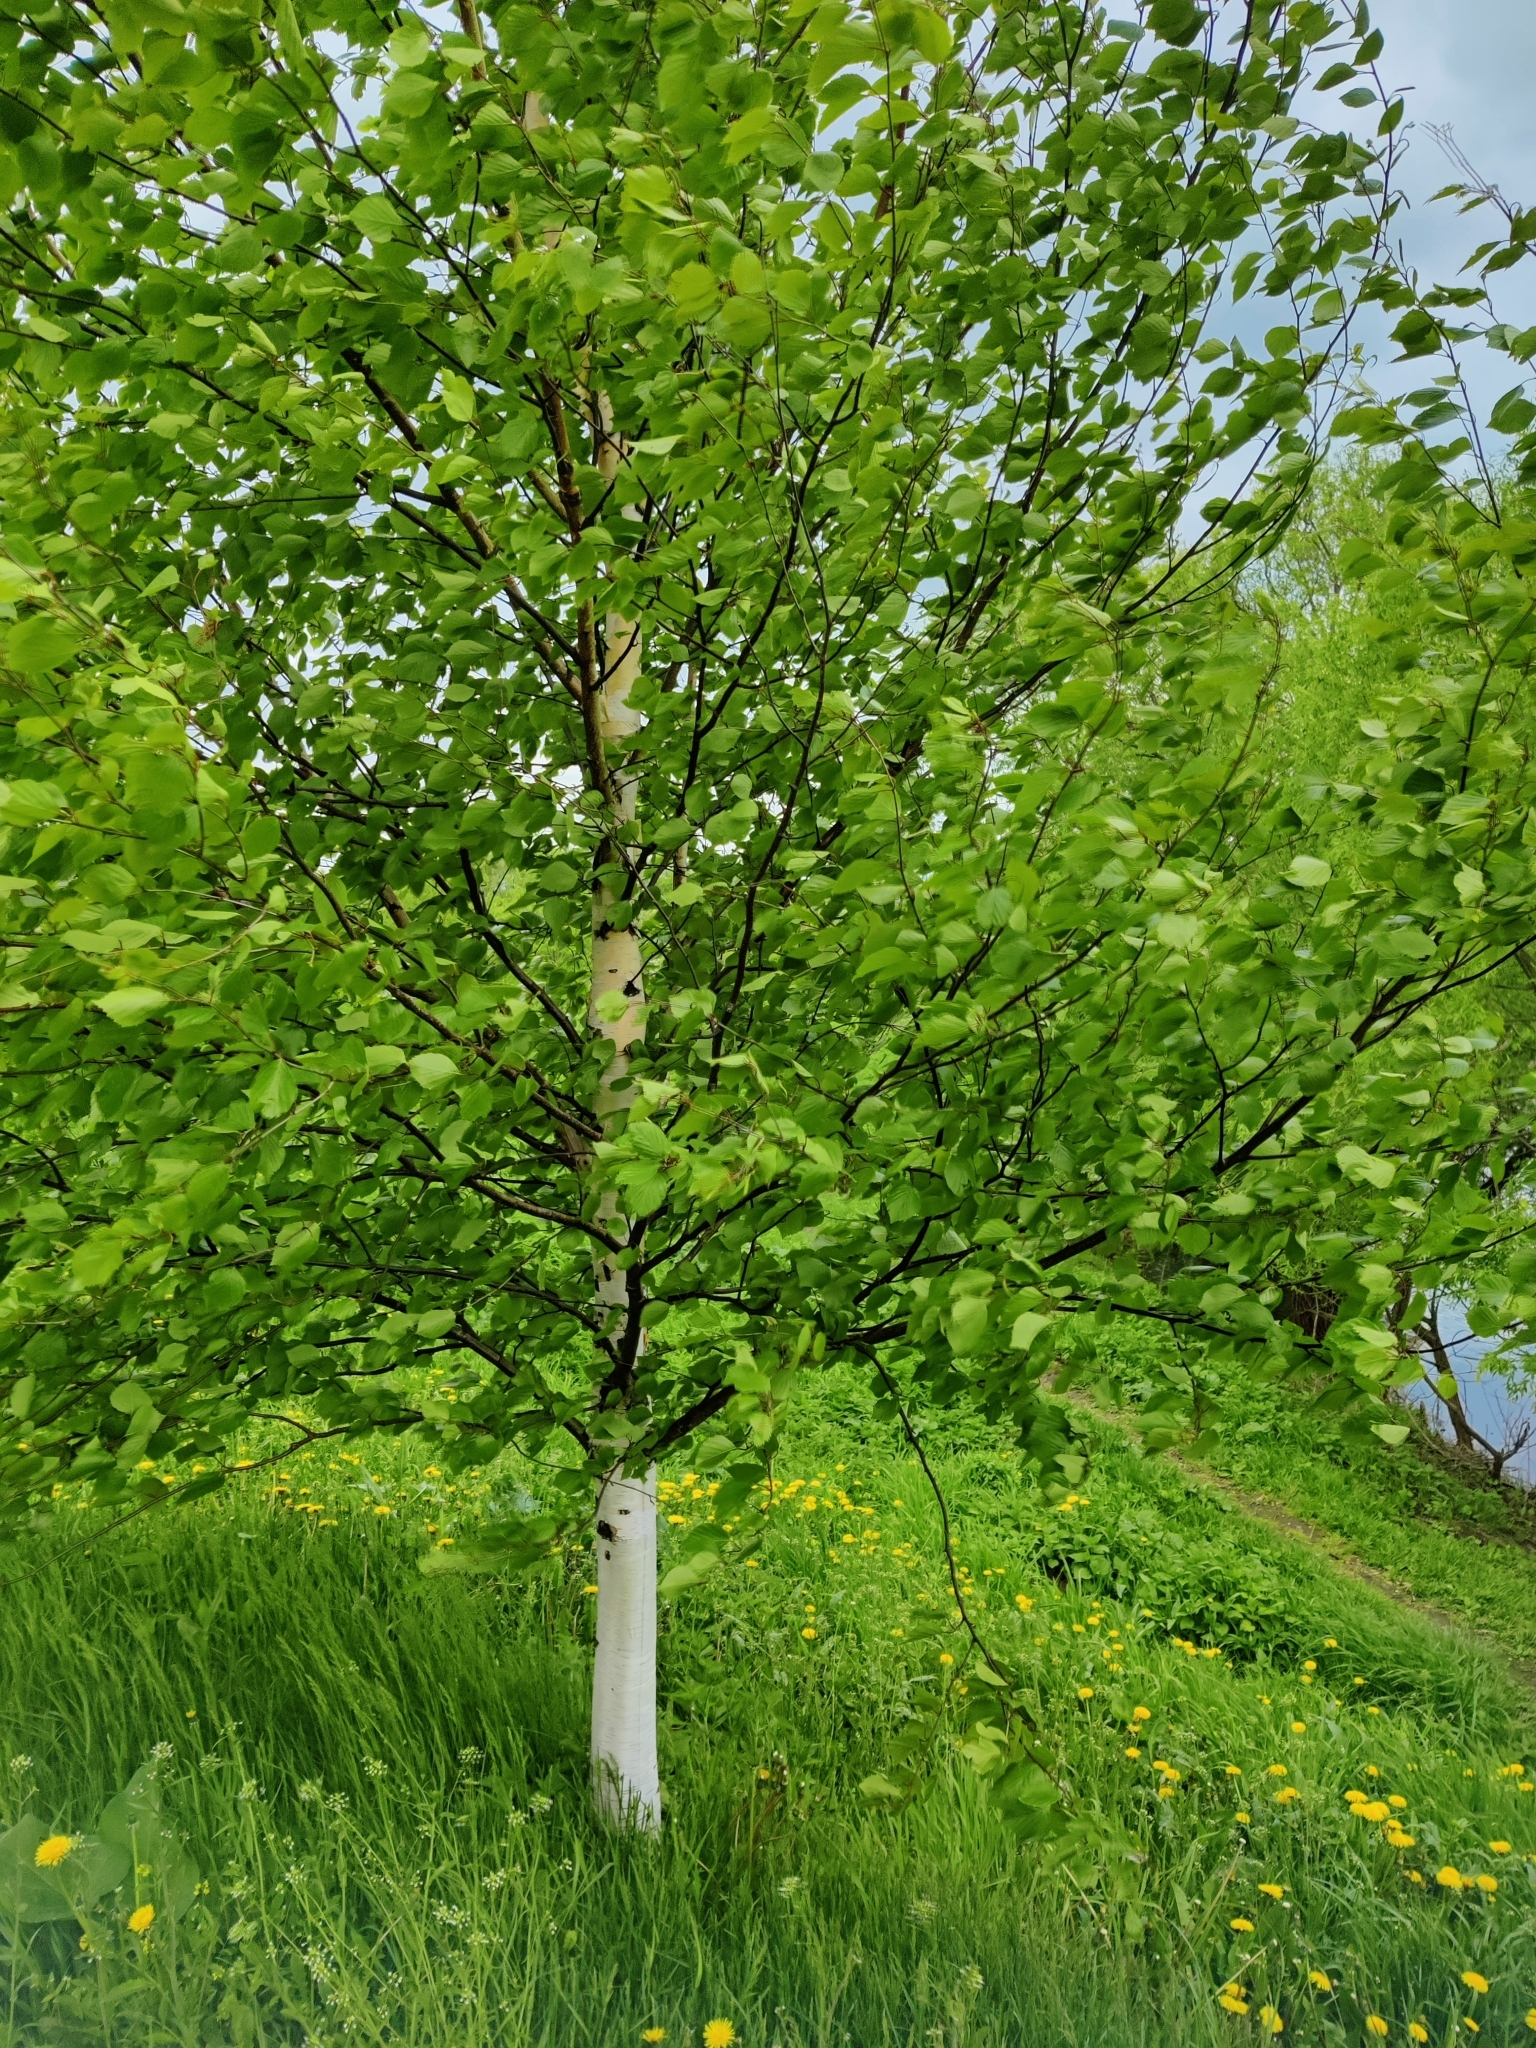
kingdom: Plantae
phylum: Tracheophyta
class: Magnoliopsida
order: Fagales
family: Betulaceae
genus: Betula
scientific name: Betula pendula
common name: Silver birch
